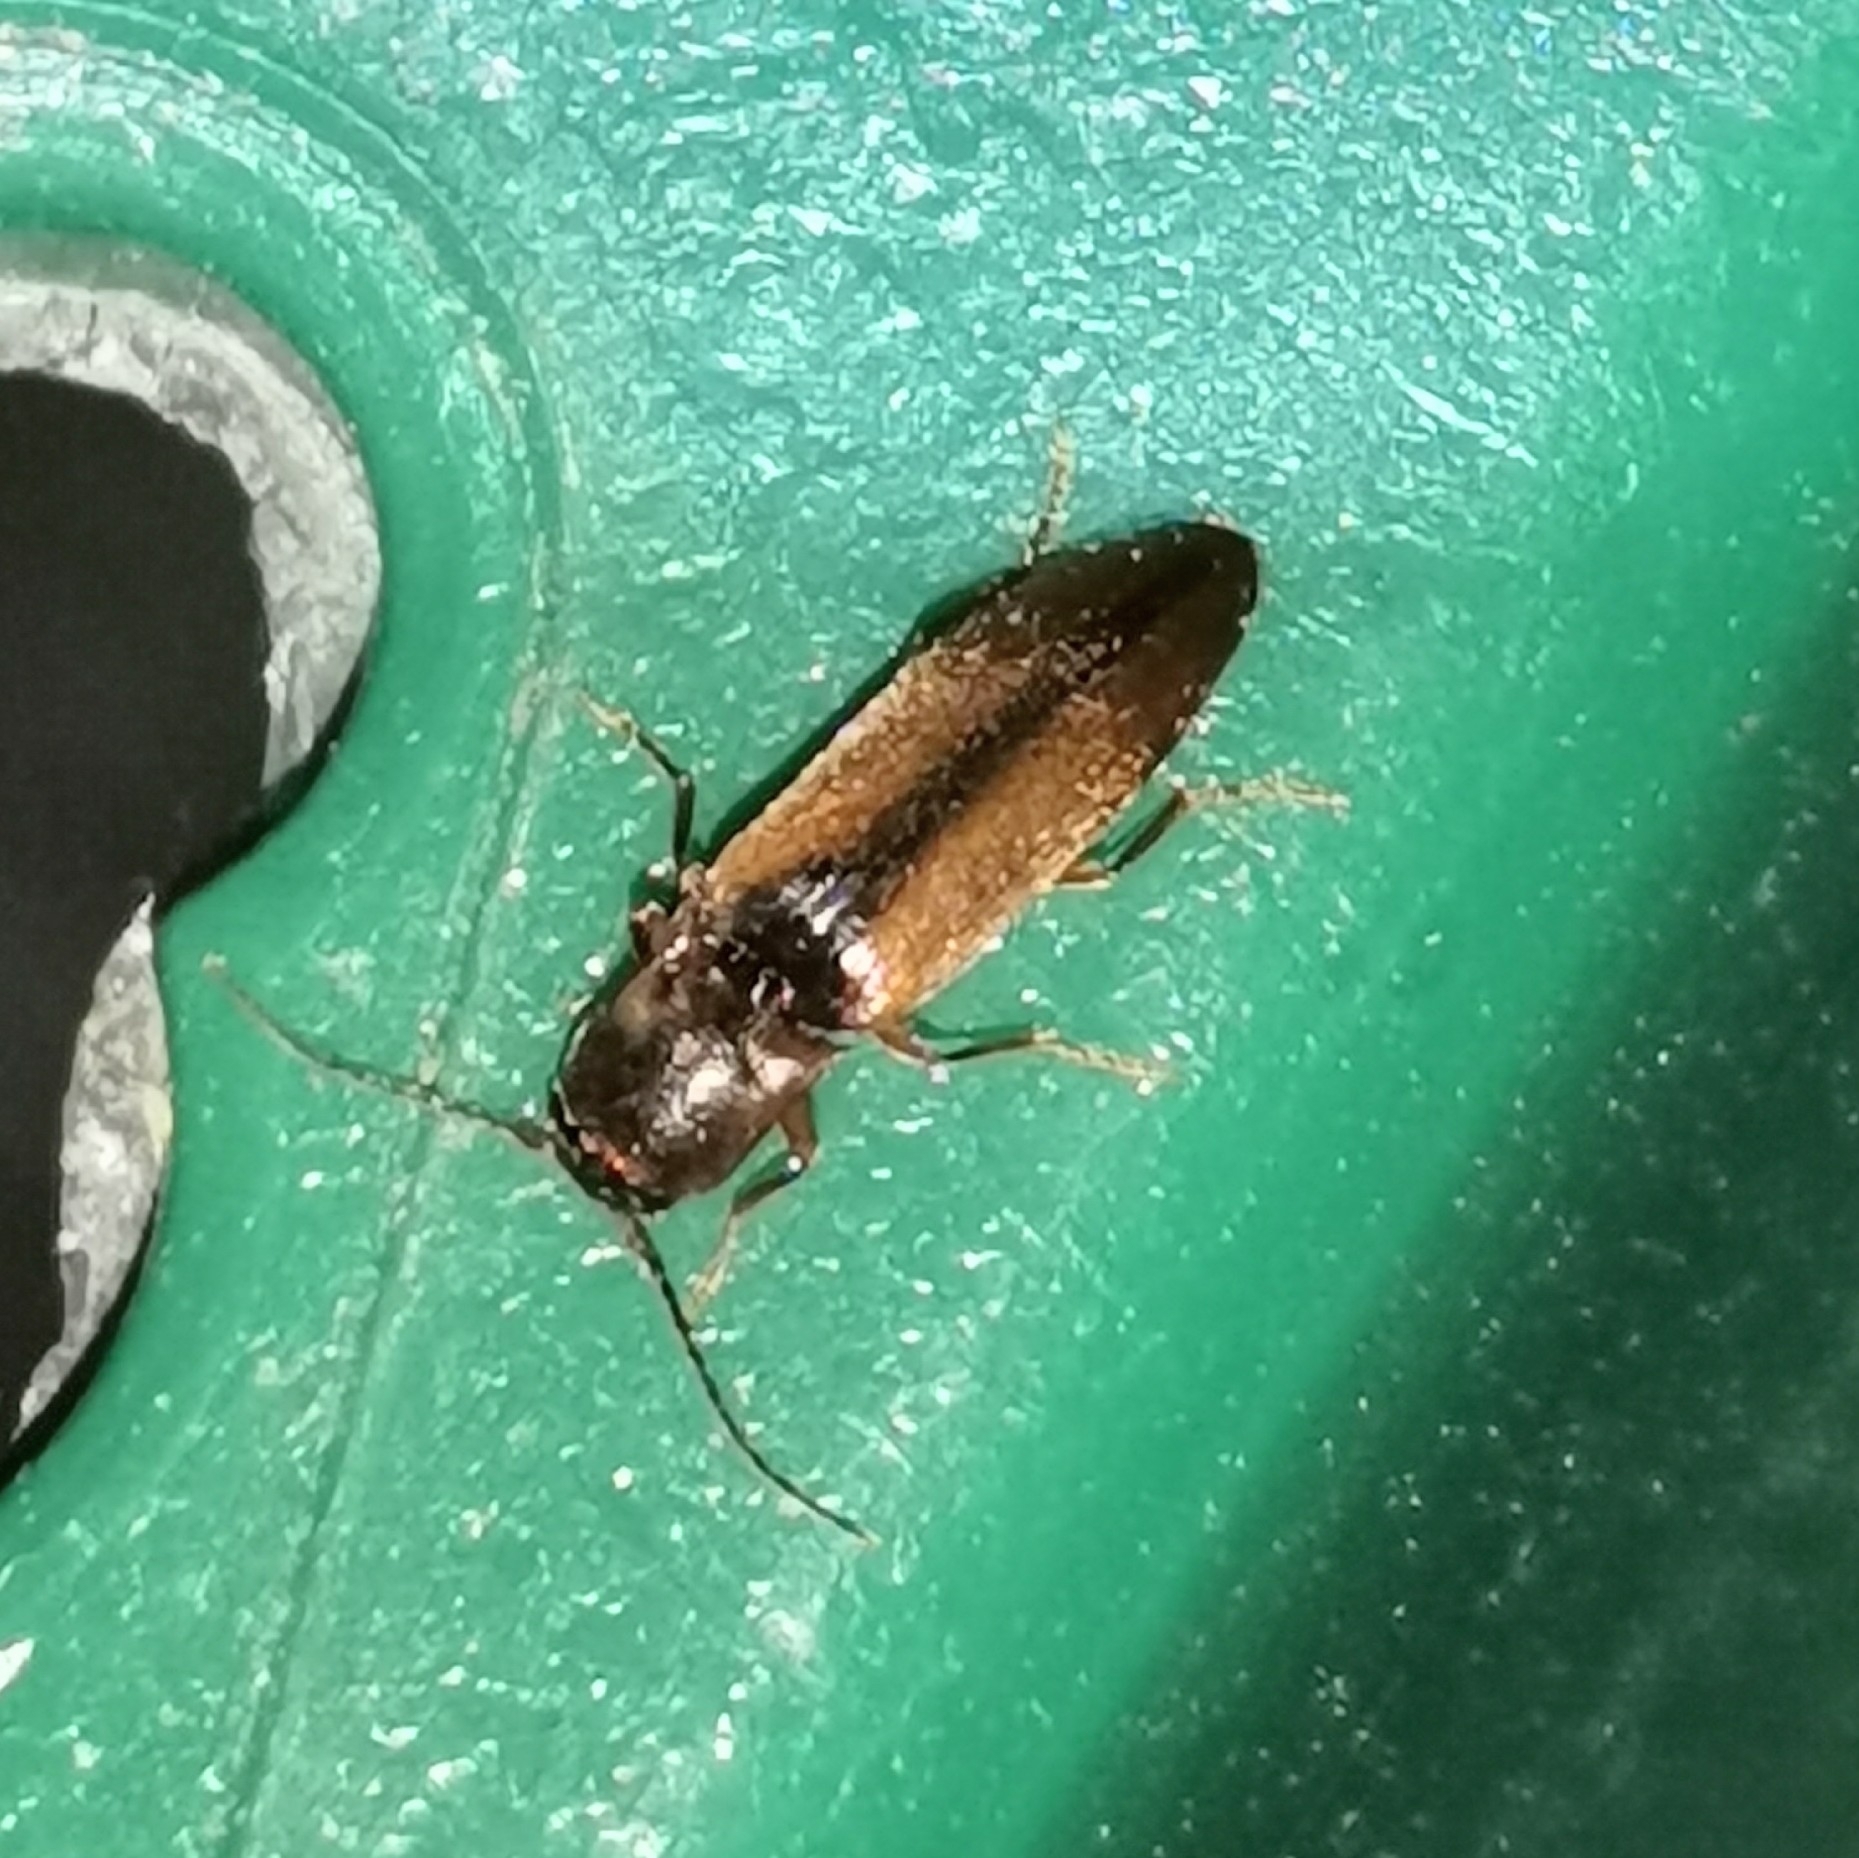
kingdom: Animalia
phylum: Arthropoda
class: Insecta
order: Coleoptera
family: Elateridae
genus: Dalopius
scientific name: Dalopius marginatus
